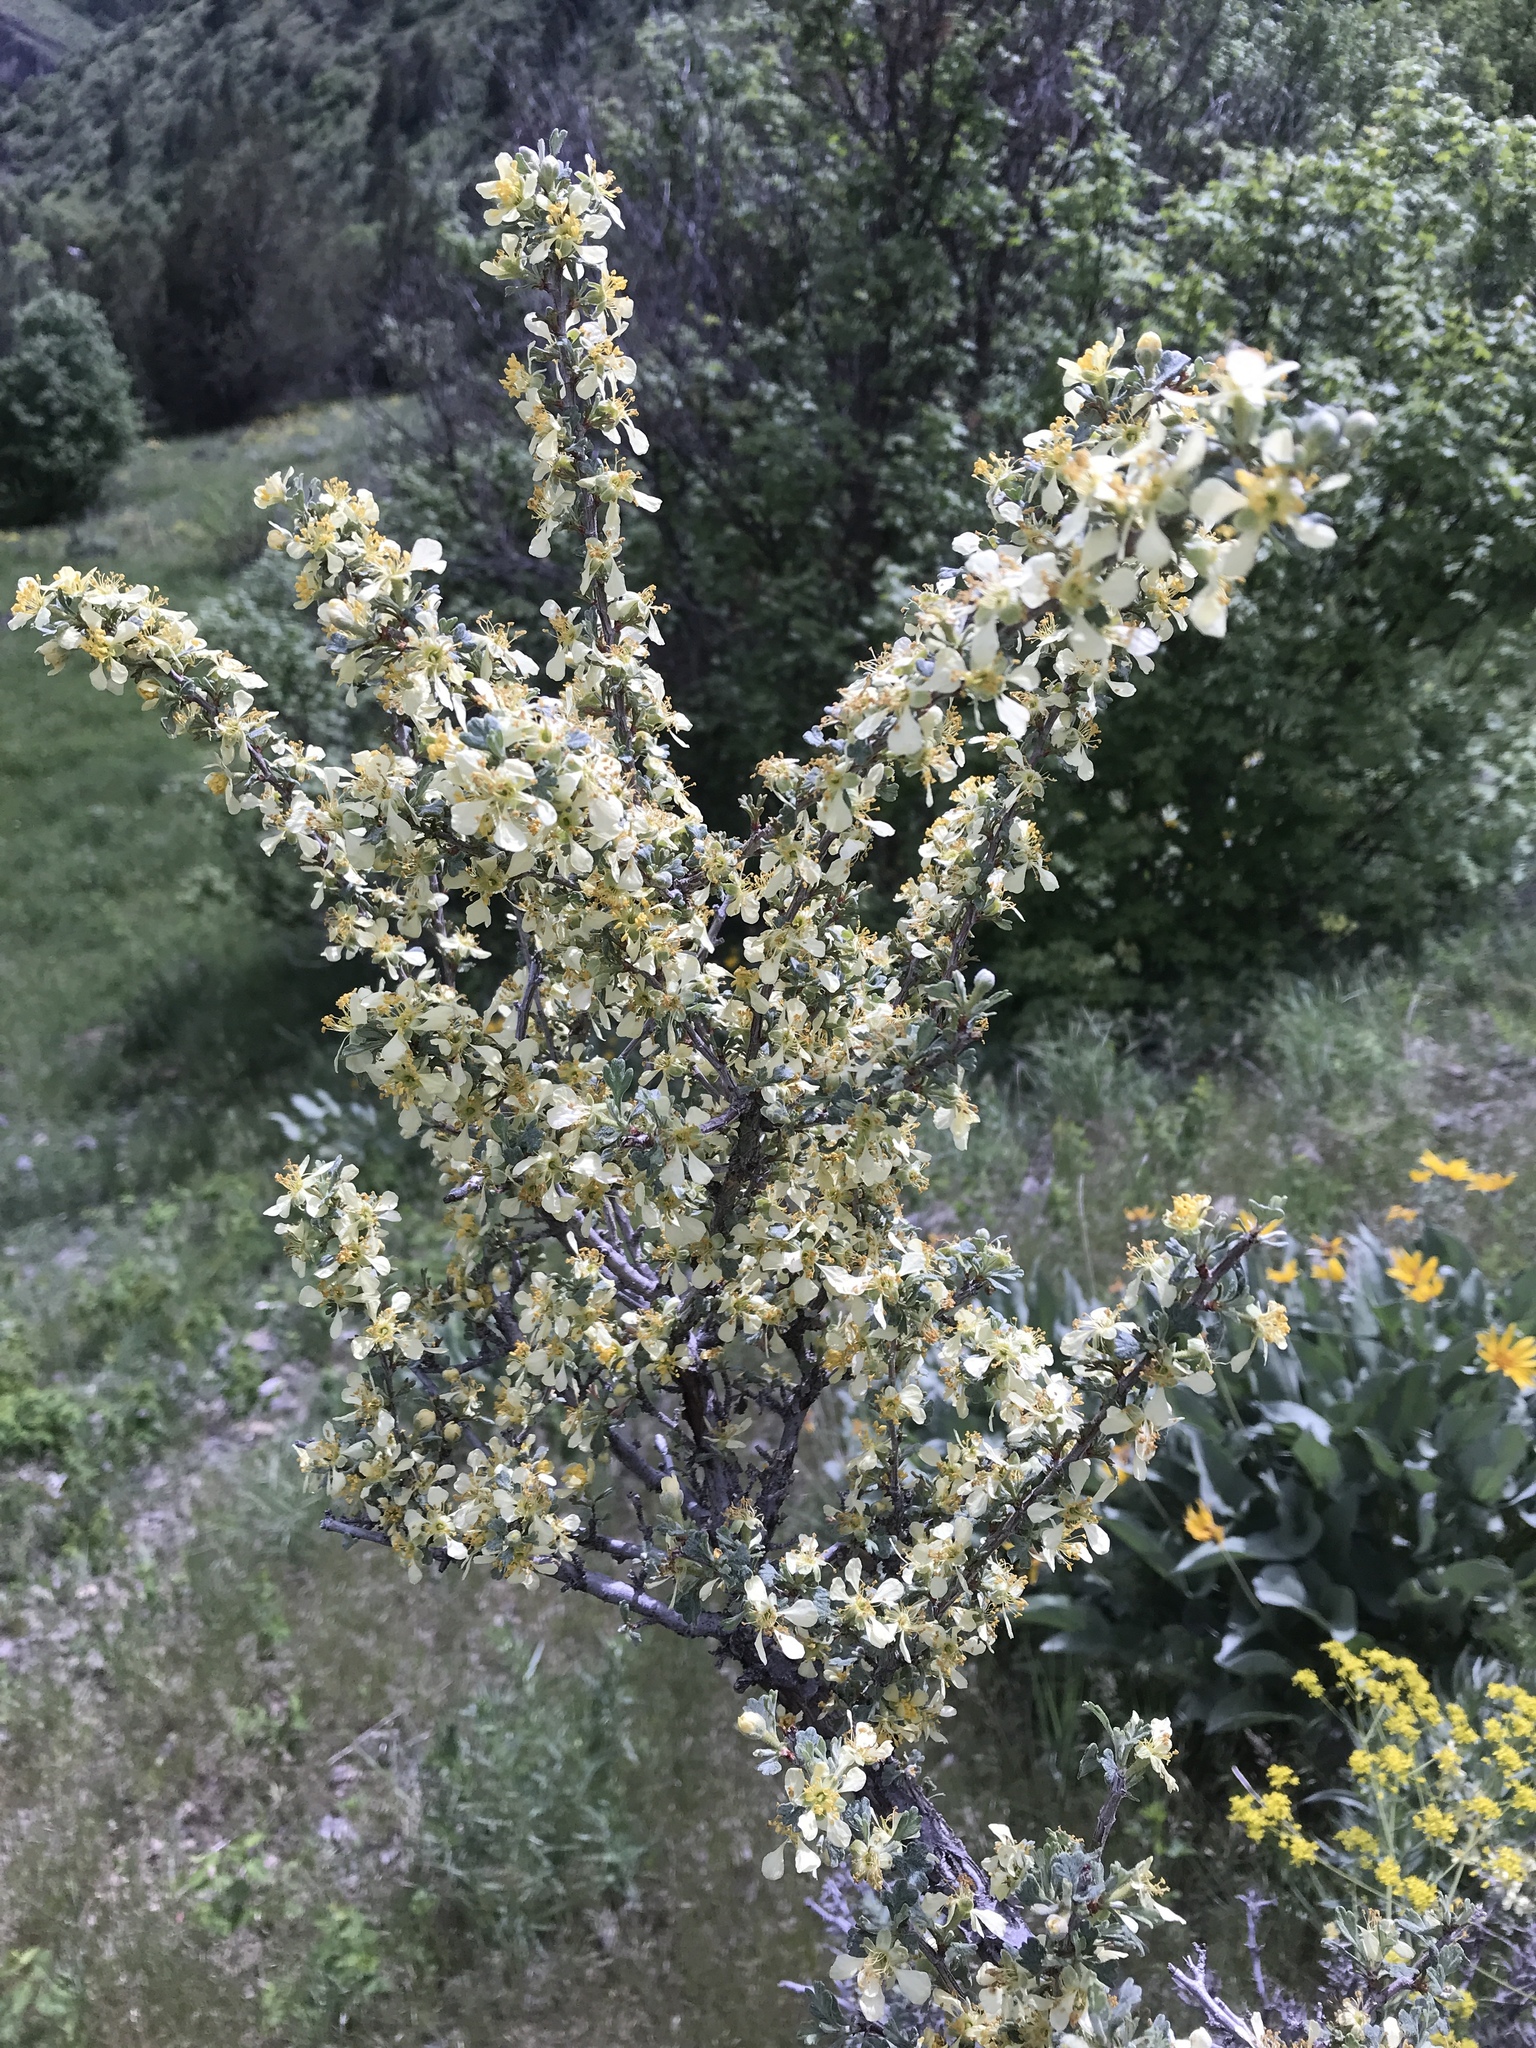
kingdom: Plantae
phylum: Tracheophyta
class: Magnoliopsida
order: Rosales
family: Rosaceae
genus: Purshia
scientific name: Purshia tridentata
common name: Antelope bitterbrush
